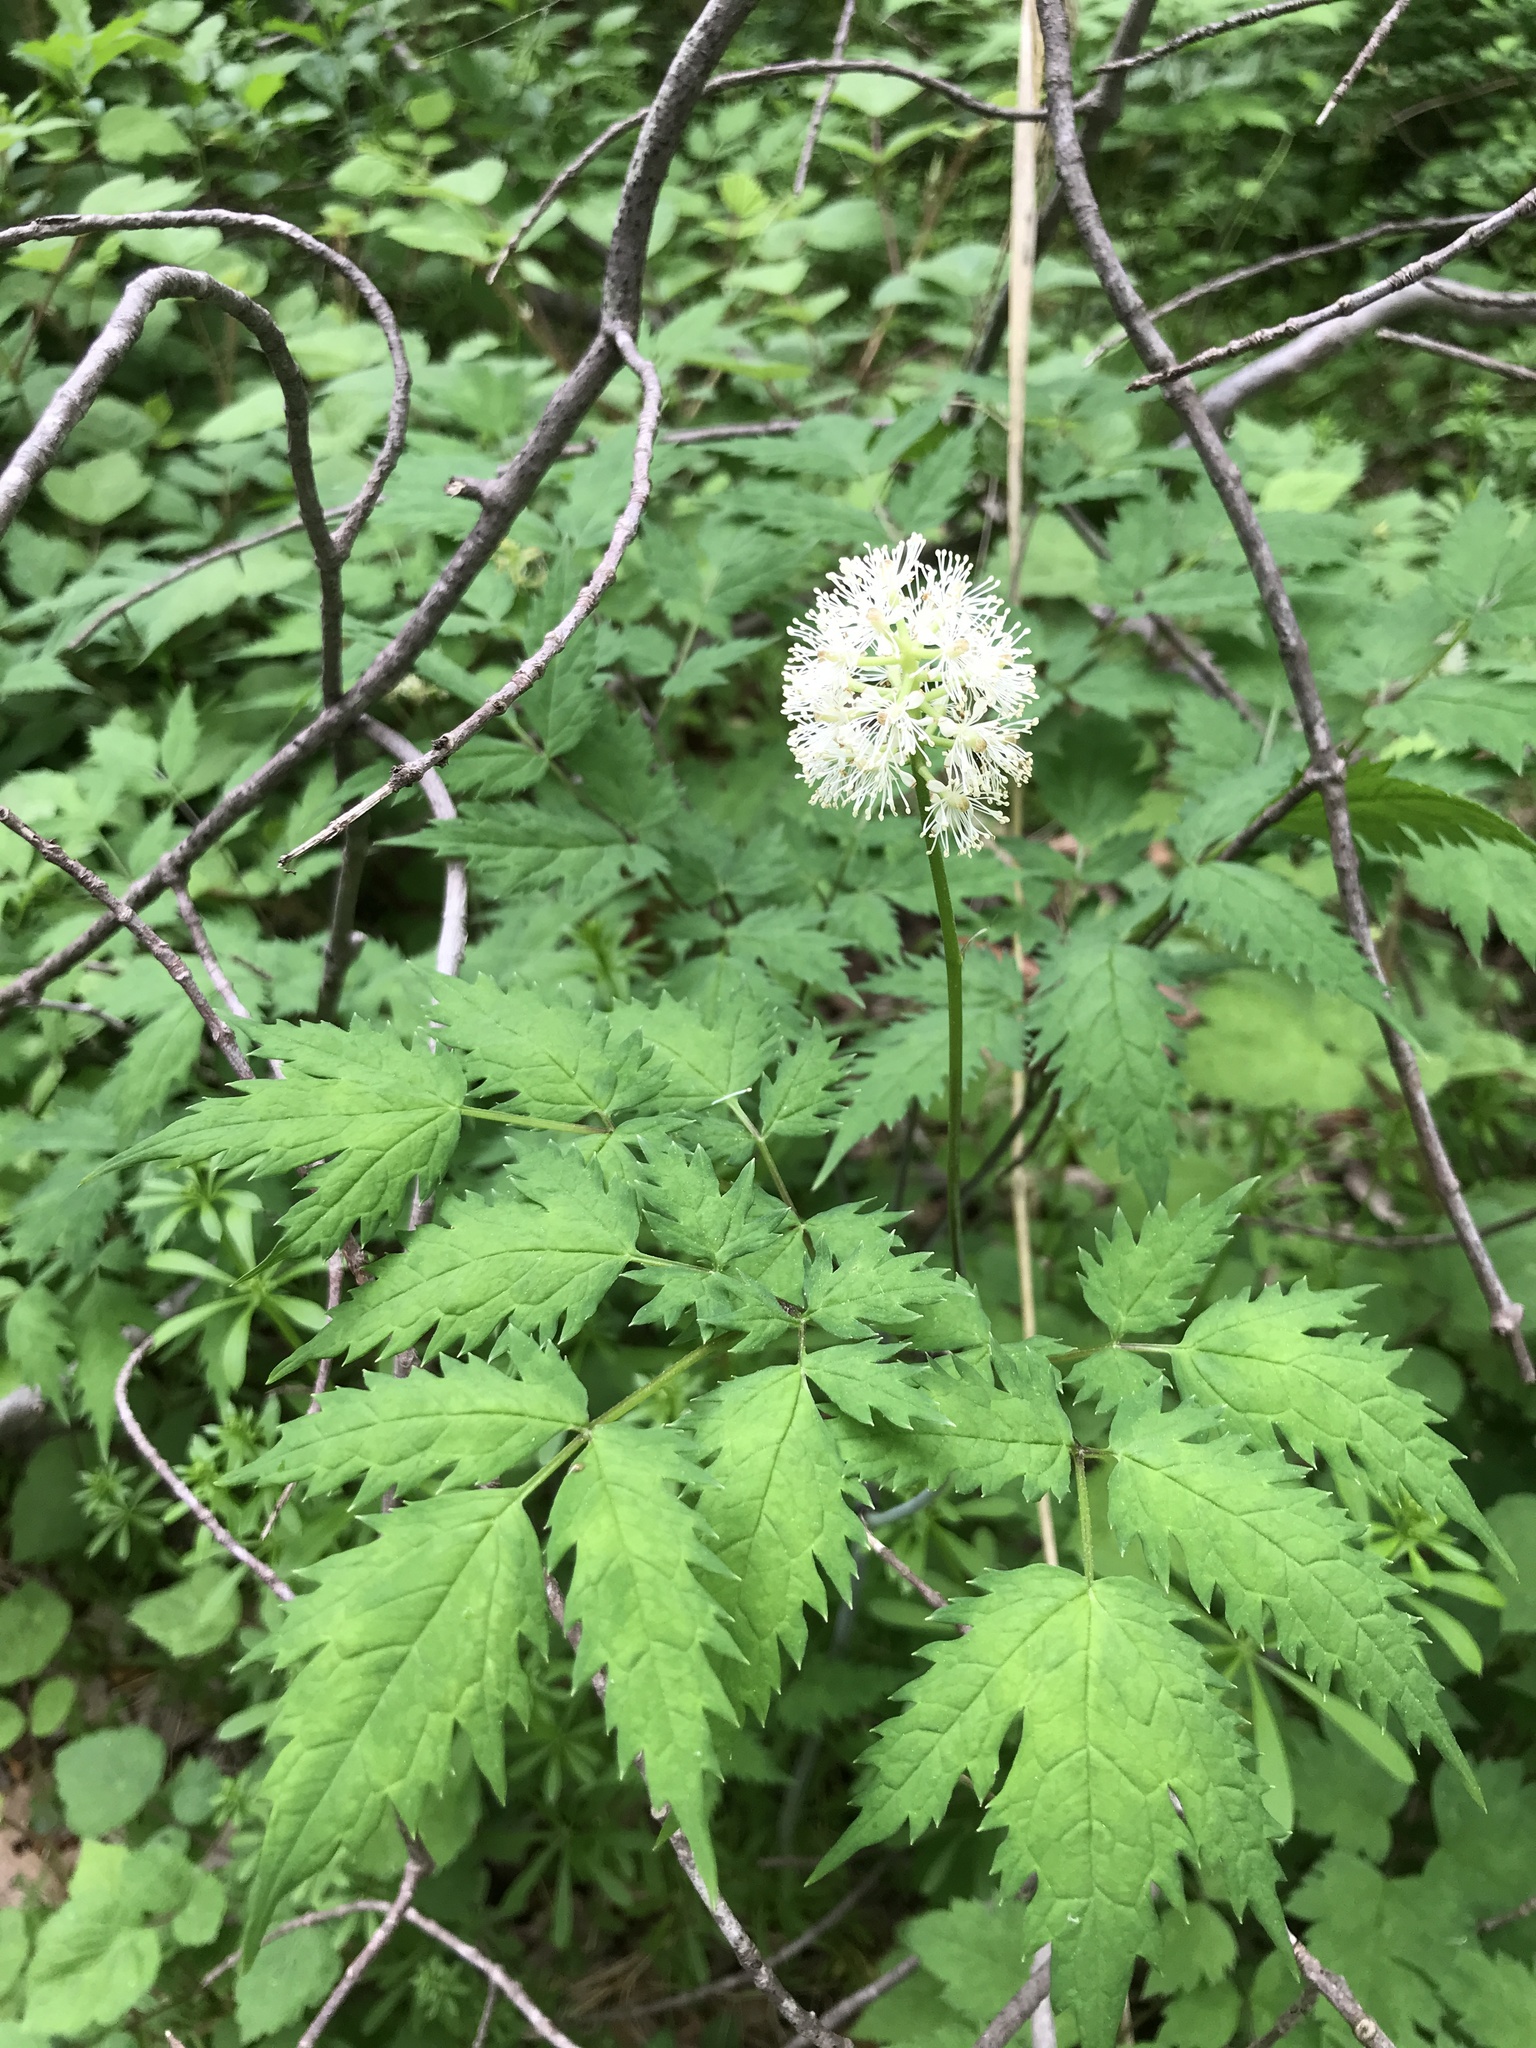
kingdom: Plantae
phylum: Tracheophyta
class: Magnoliopsida
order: Ranunculales
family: Ranunculaceae
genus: Actaea
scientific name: Actaea pachypoda
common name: Doll's-eyes
